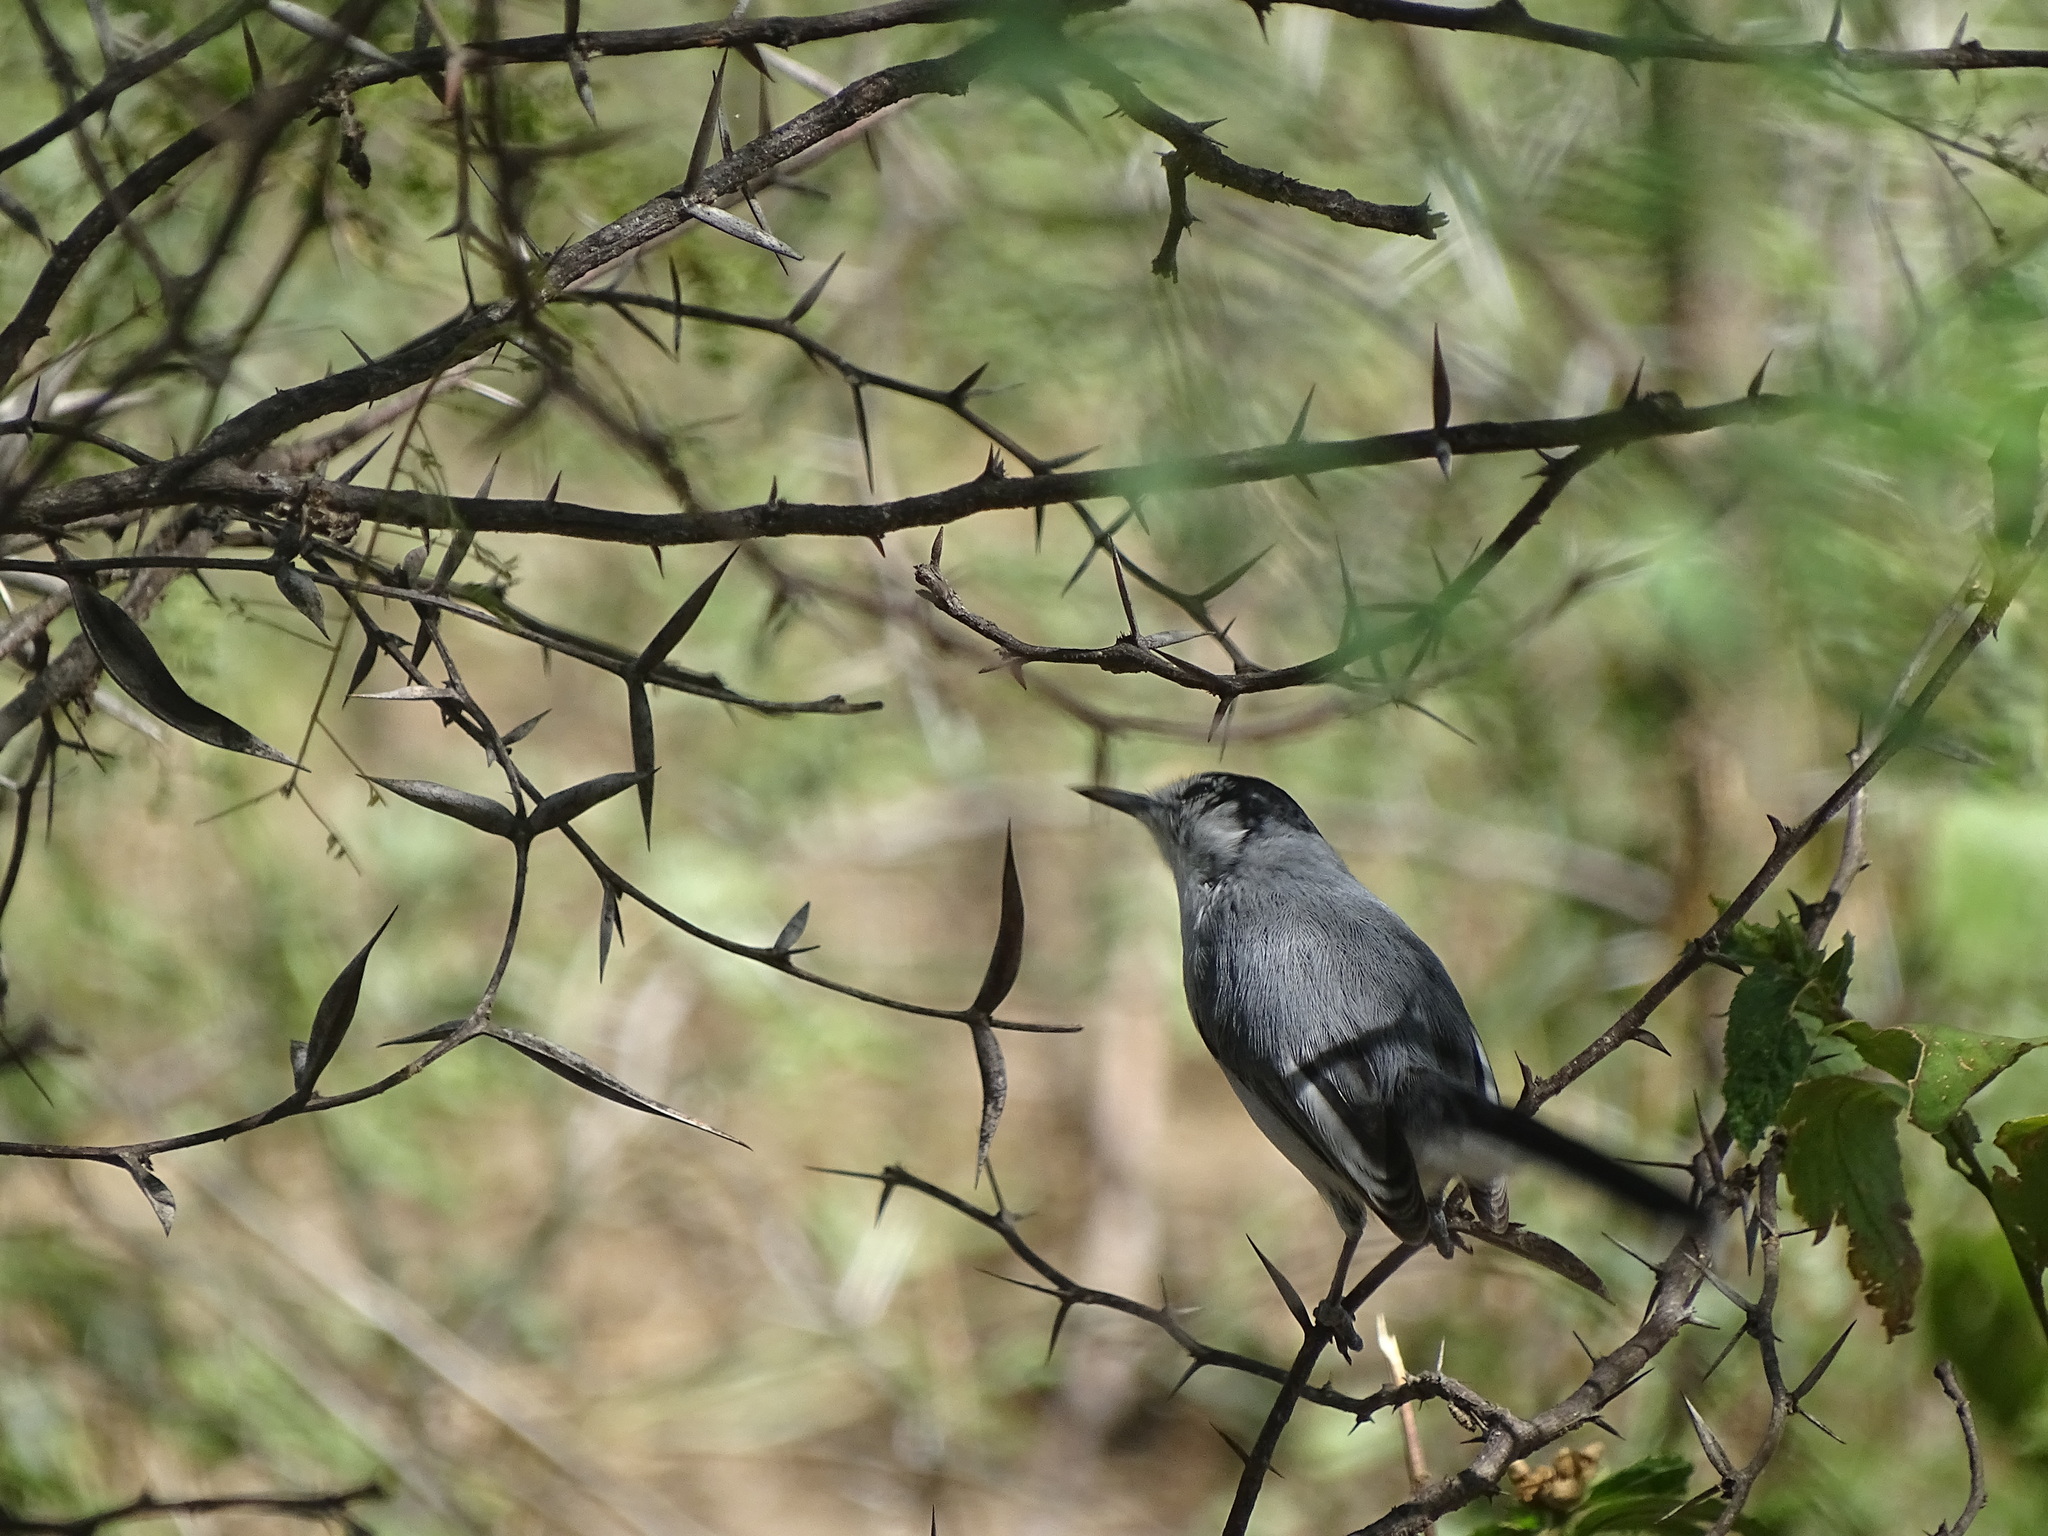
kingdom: Animalia
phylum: Chordata
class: Aves
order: Passeriformes
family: Polioptilidae
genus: Polioptila
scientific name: Polioptila albiloris
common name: White-lored gnatcatcher
